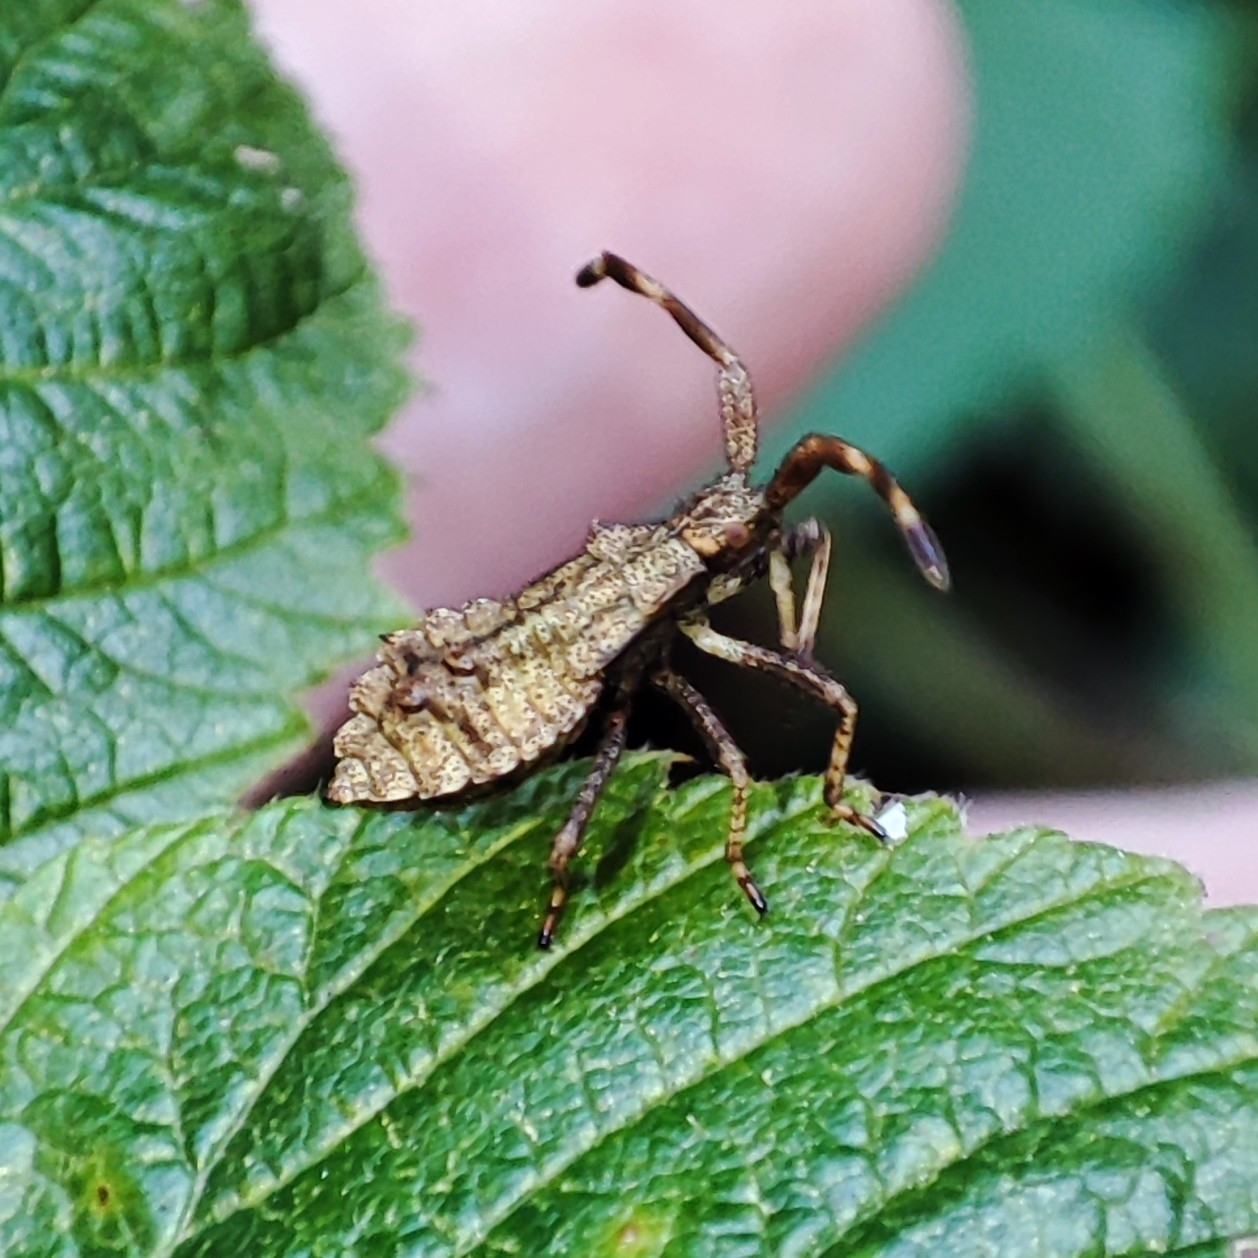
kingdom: Animalia
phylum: Arthropoda
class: Insecta
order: Hemiptera
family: Coreidae
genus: Coreus
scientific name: Coreus marginatus
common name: Dock bug
